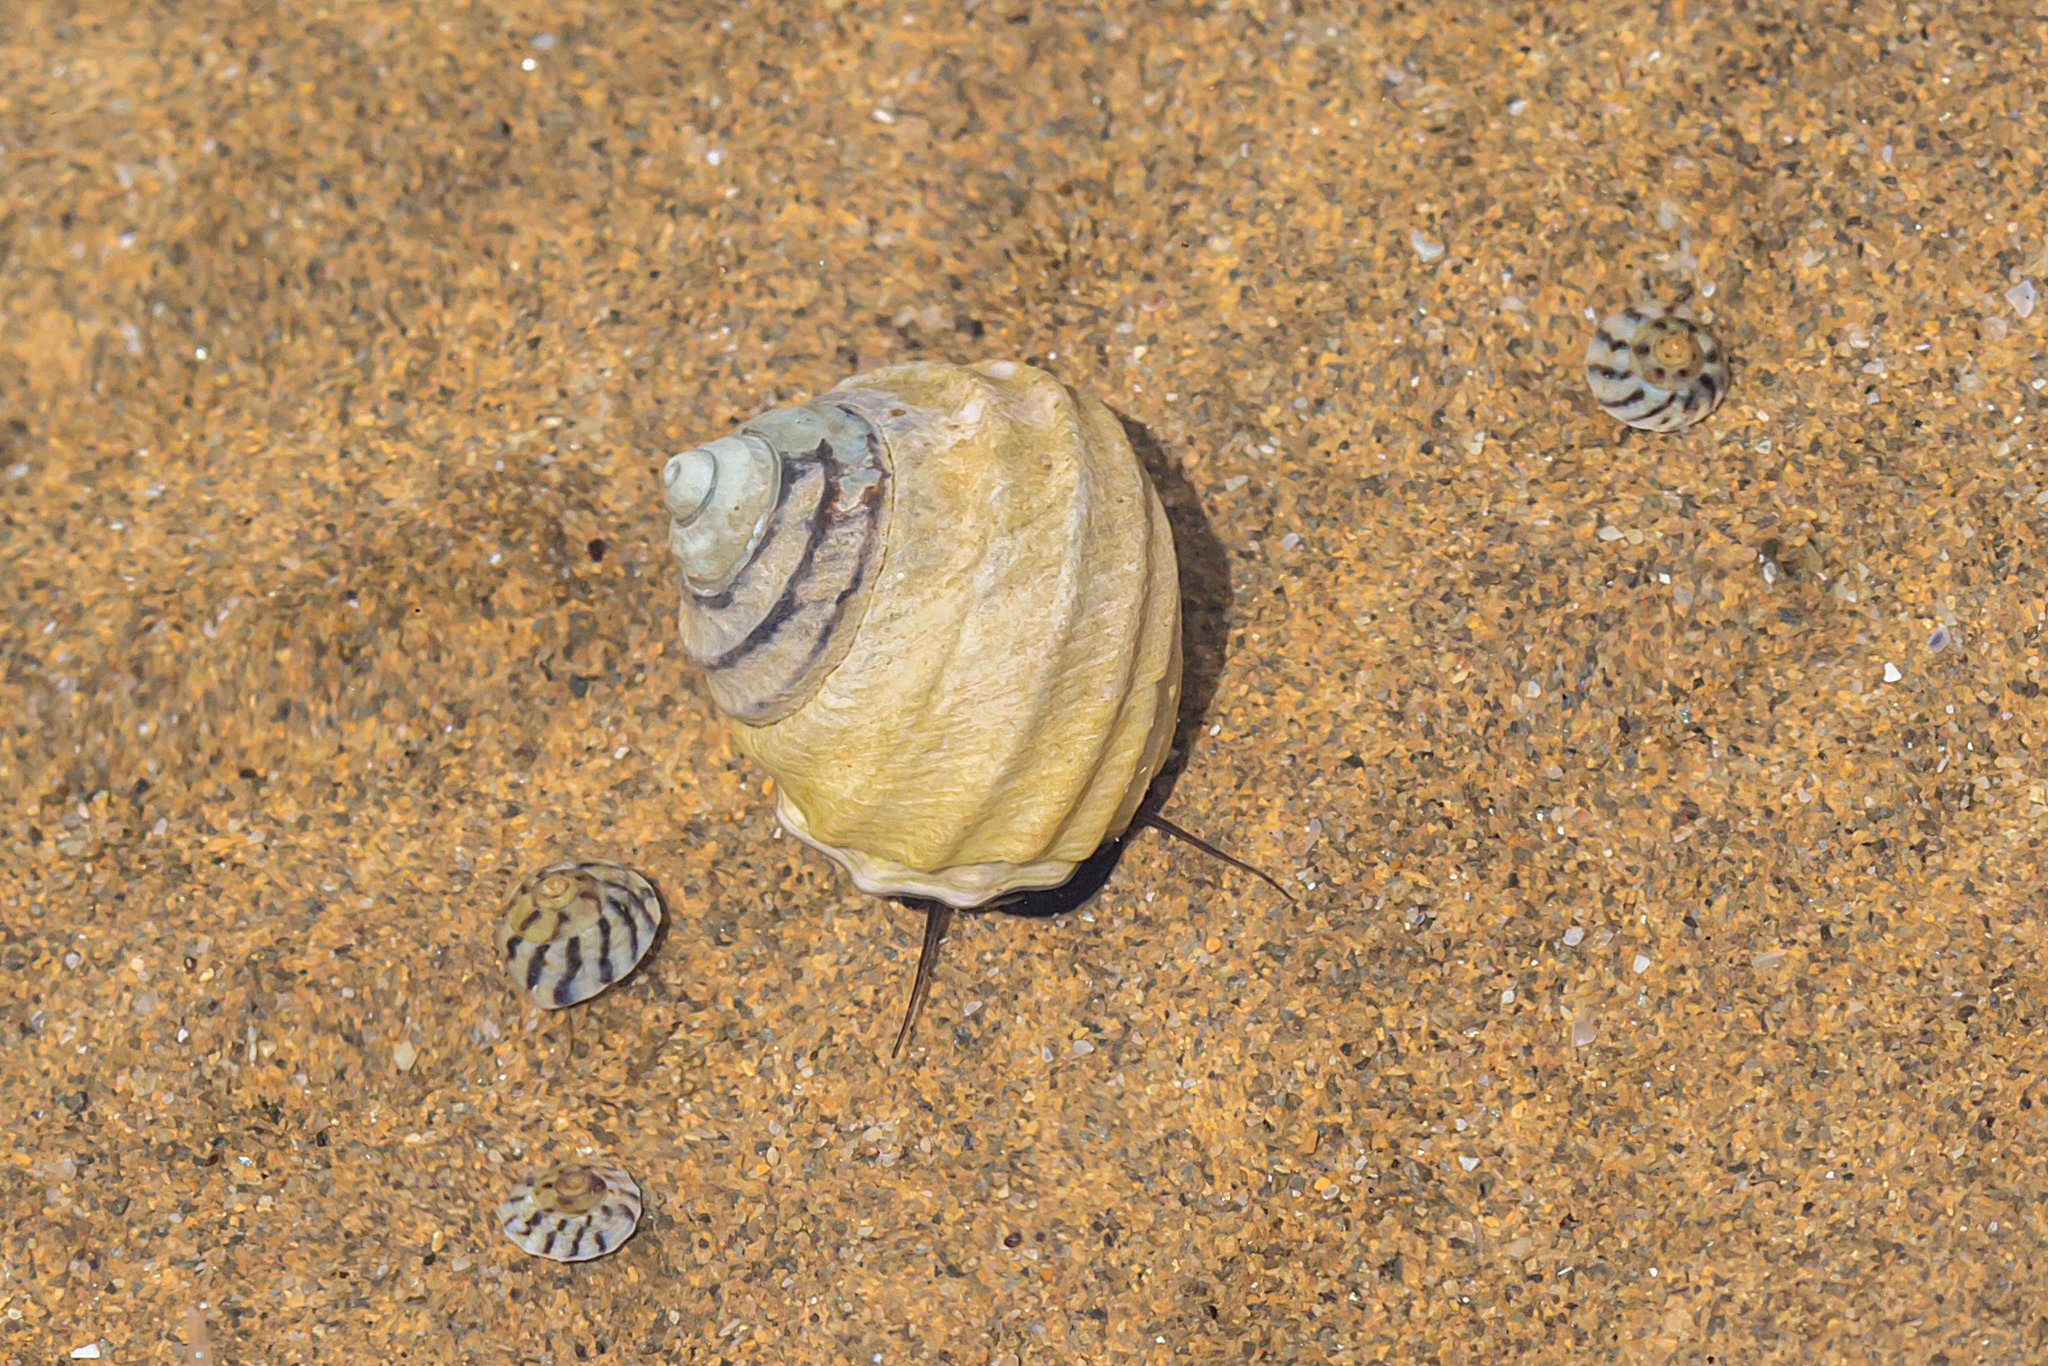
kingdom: Animalia
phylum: Mollusca
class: Gastropoda
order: Trochida
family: Trochidae
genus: Austrocochlea
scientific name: Austrocochlea constricta
